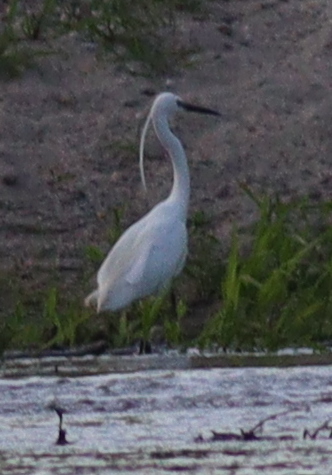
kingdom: Animalia
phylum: Chordata
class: Aves
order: Pelecaniformes
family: Ardeidae
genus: Egretta
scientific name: Egretta garzetta
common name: Little egret
